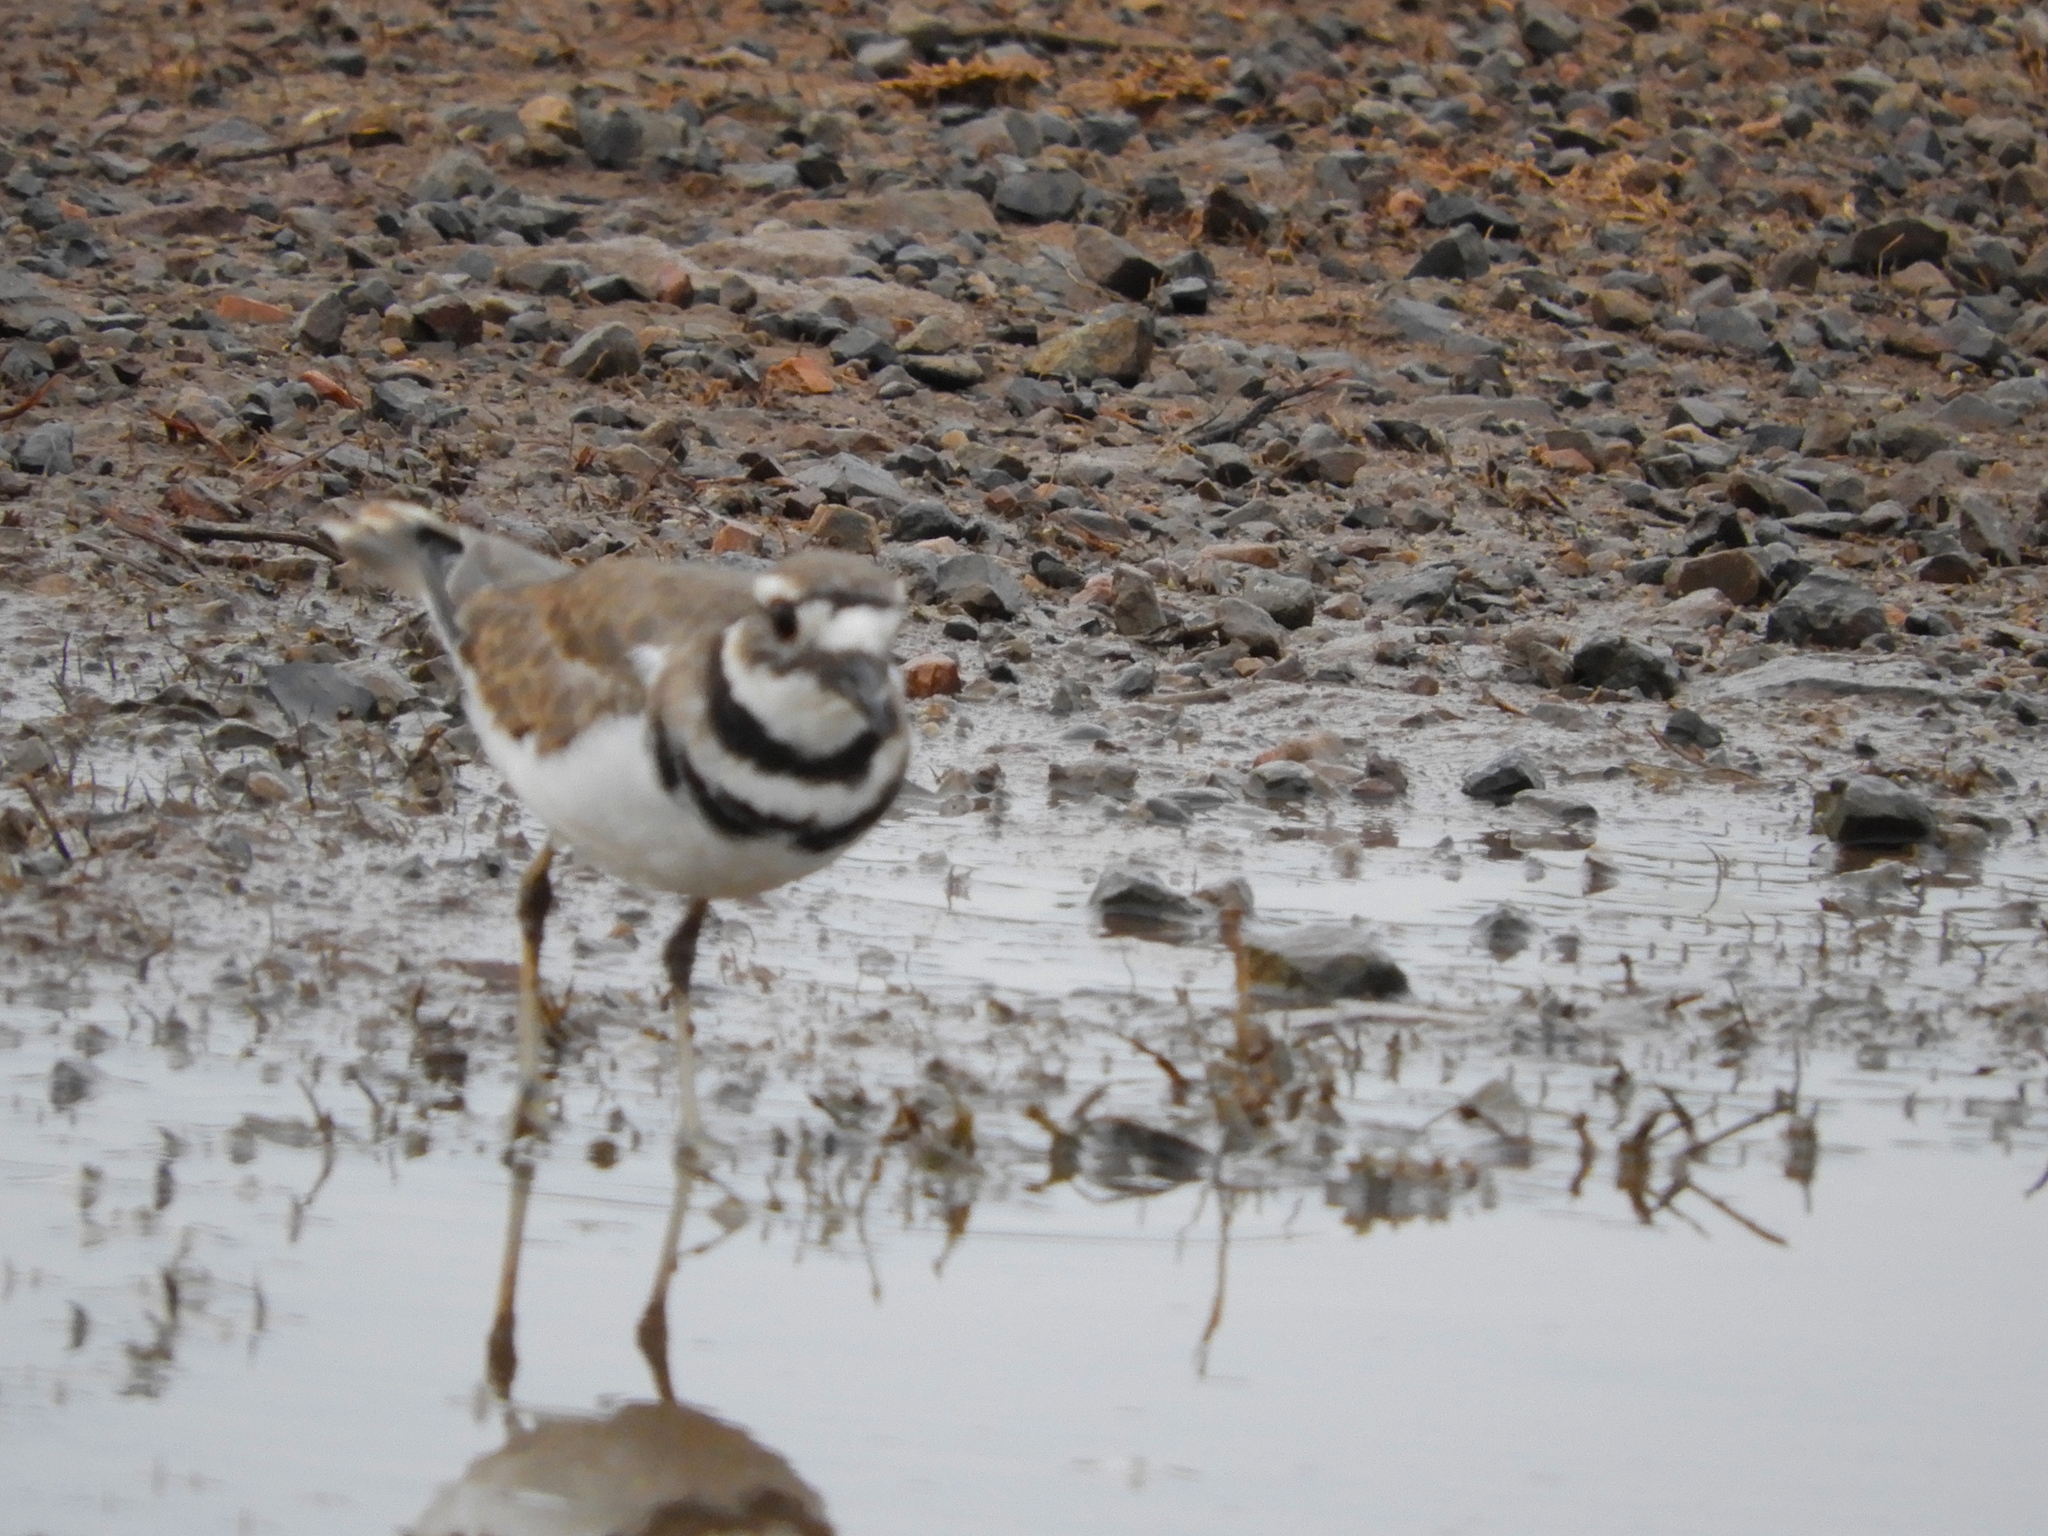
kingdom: Animalia
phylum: Chordata
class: Aves
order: Charadriiformes
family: Charadriidae
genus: Charadrius
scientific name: Charadrius vociferus
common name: Killdeer
